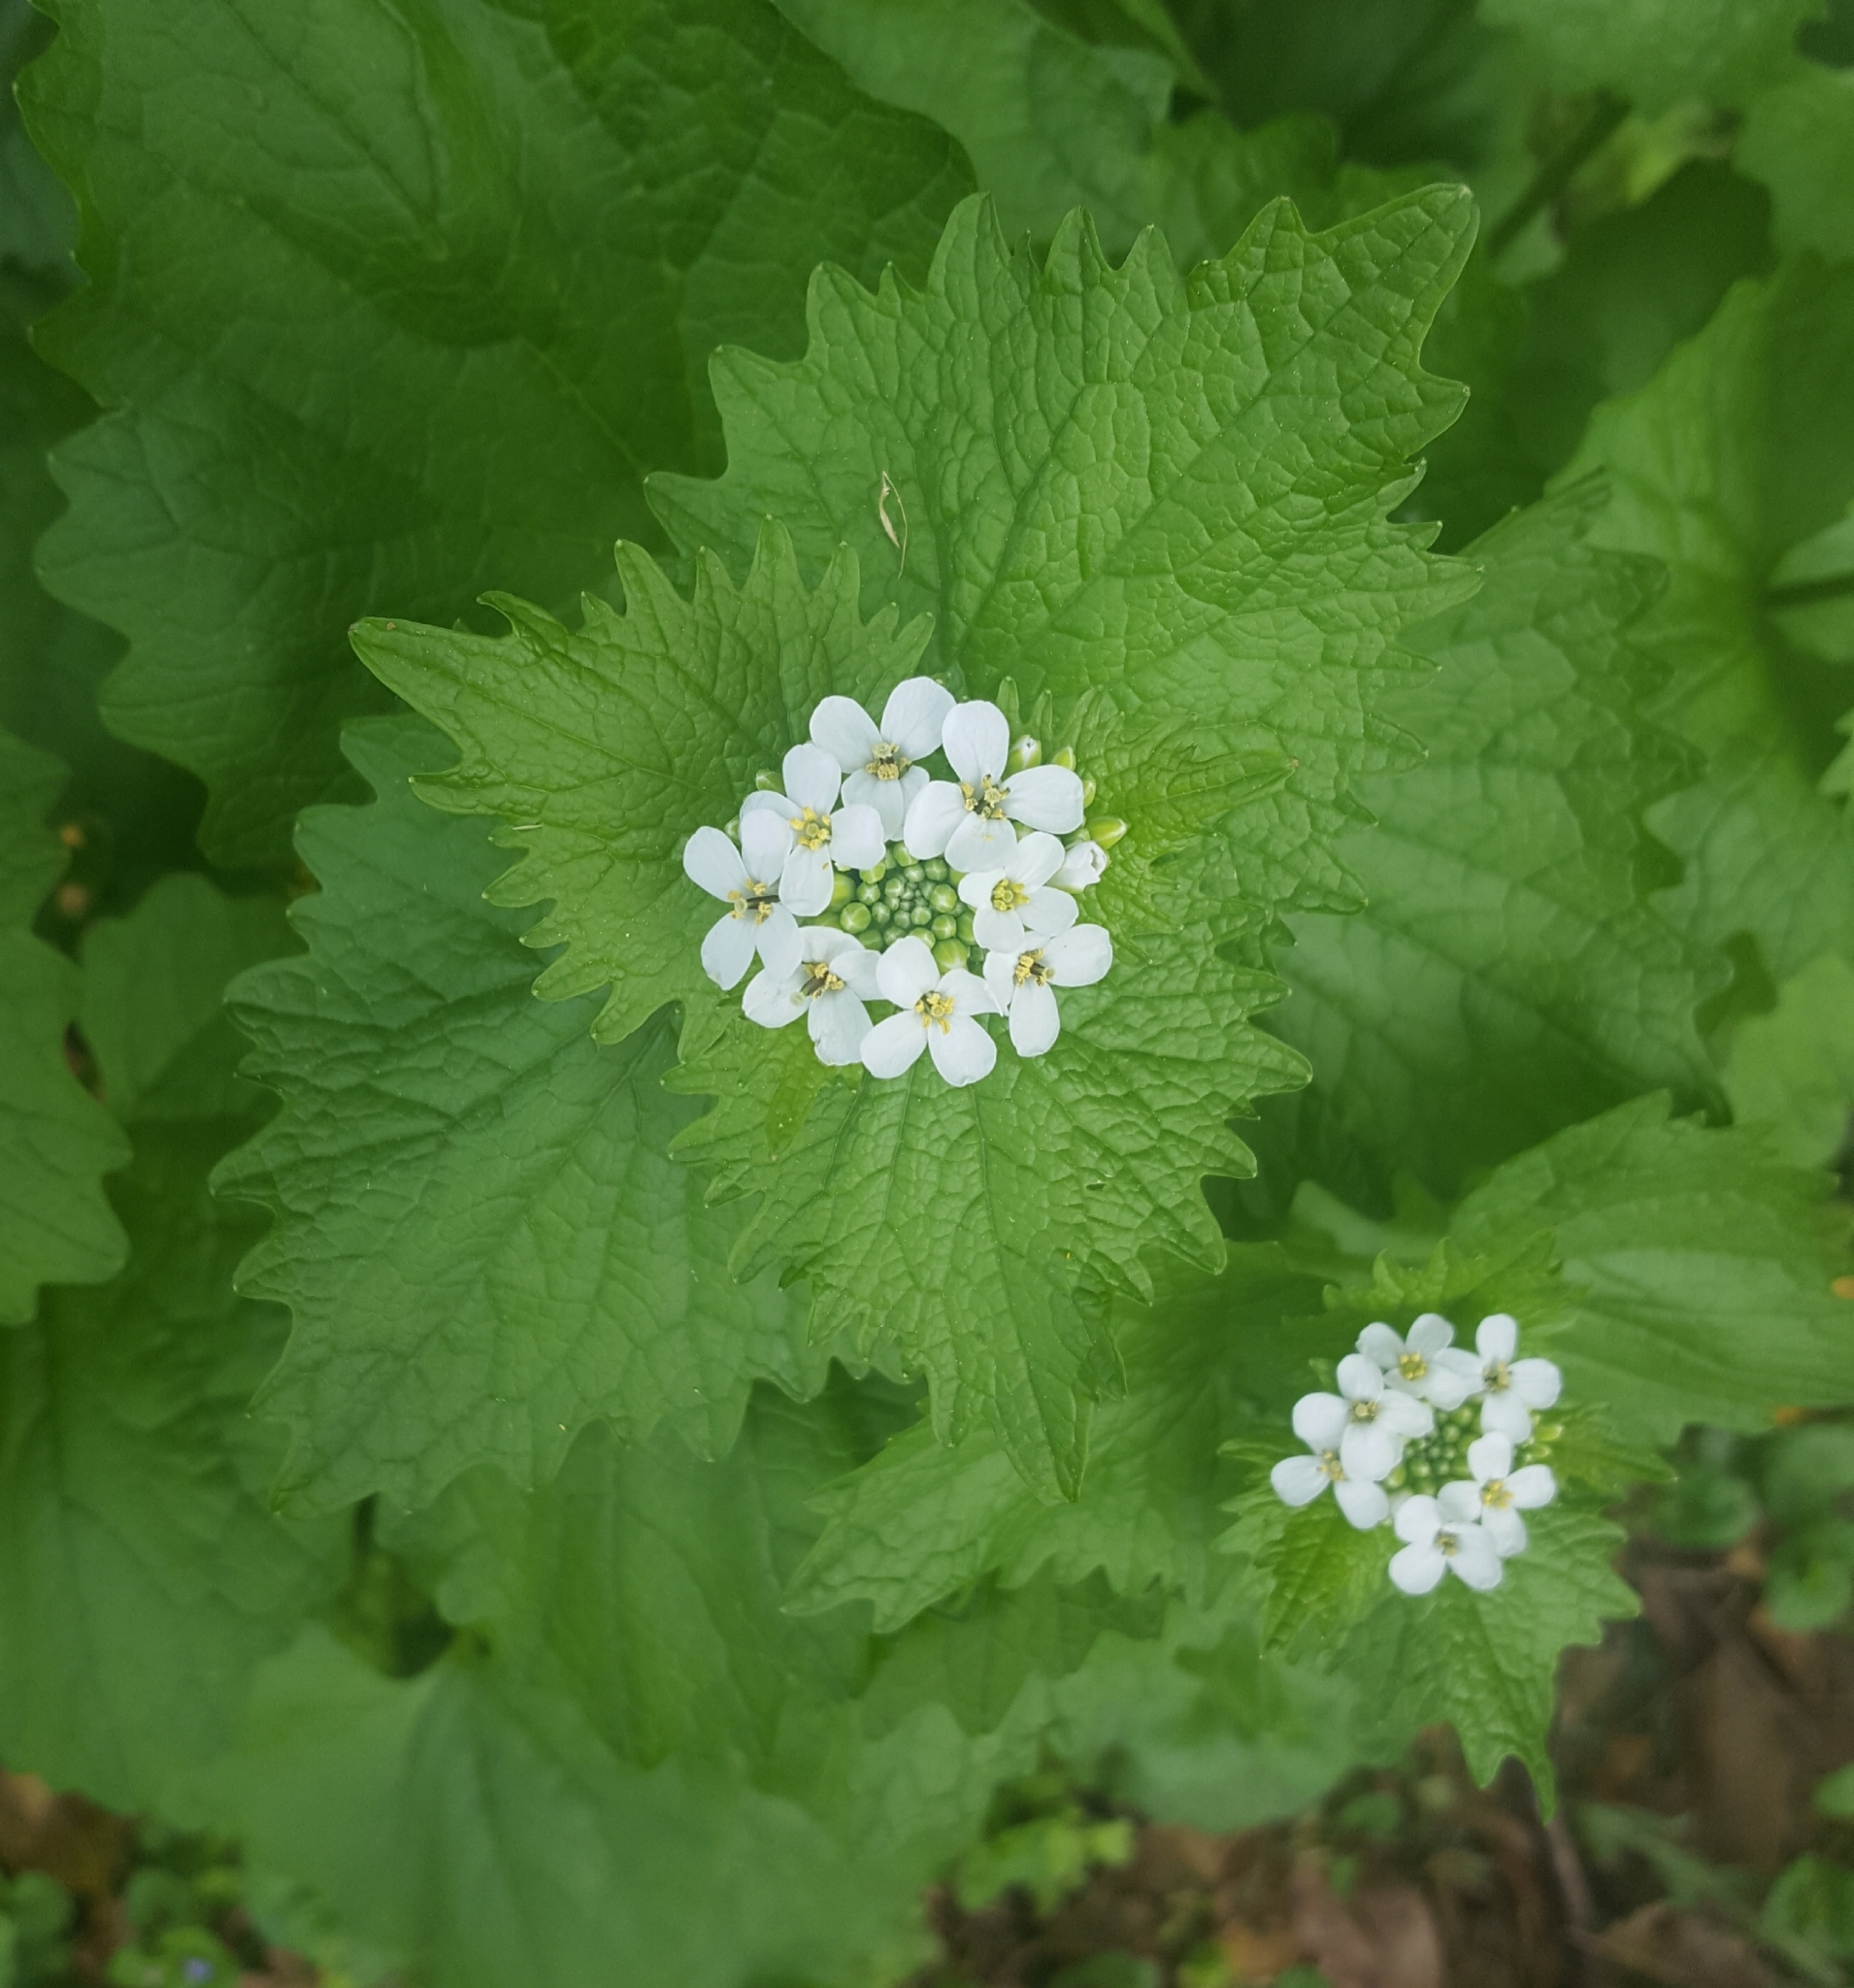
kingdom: Plantae
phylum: Tracheophyta
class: Magnoliopsida
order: Brassicales
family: Brassicaceae
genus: Alliaria
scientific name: Alliaria petiolata
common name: Garlic mustard
